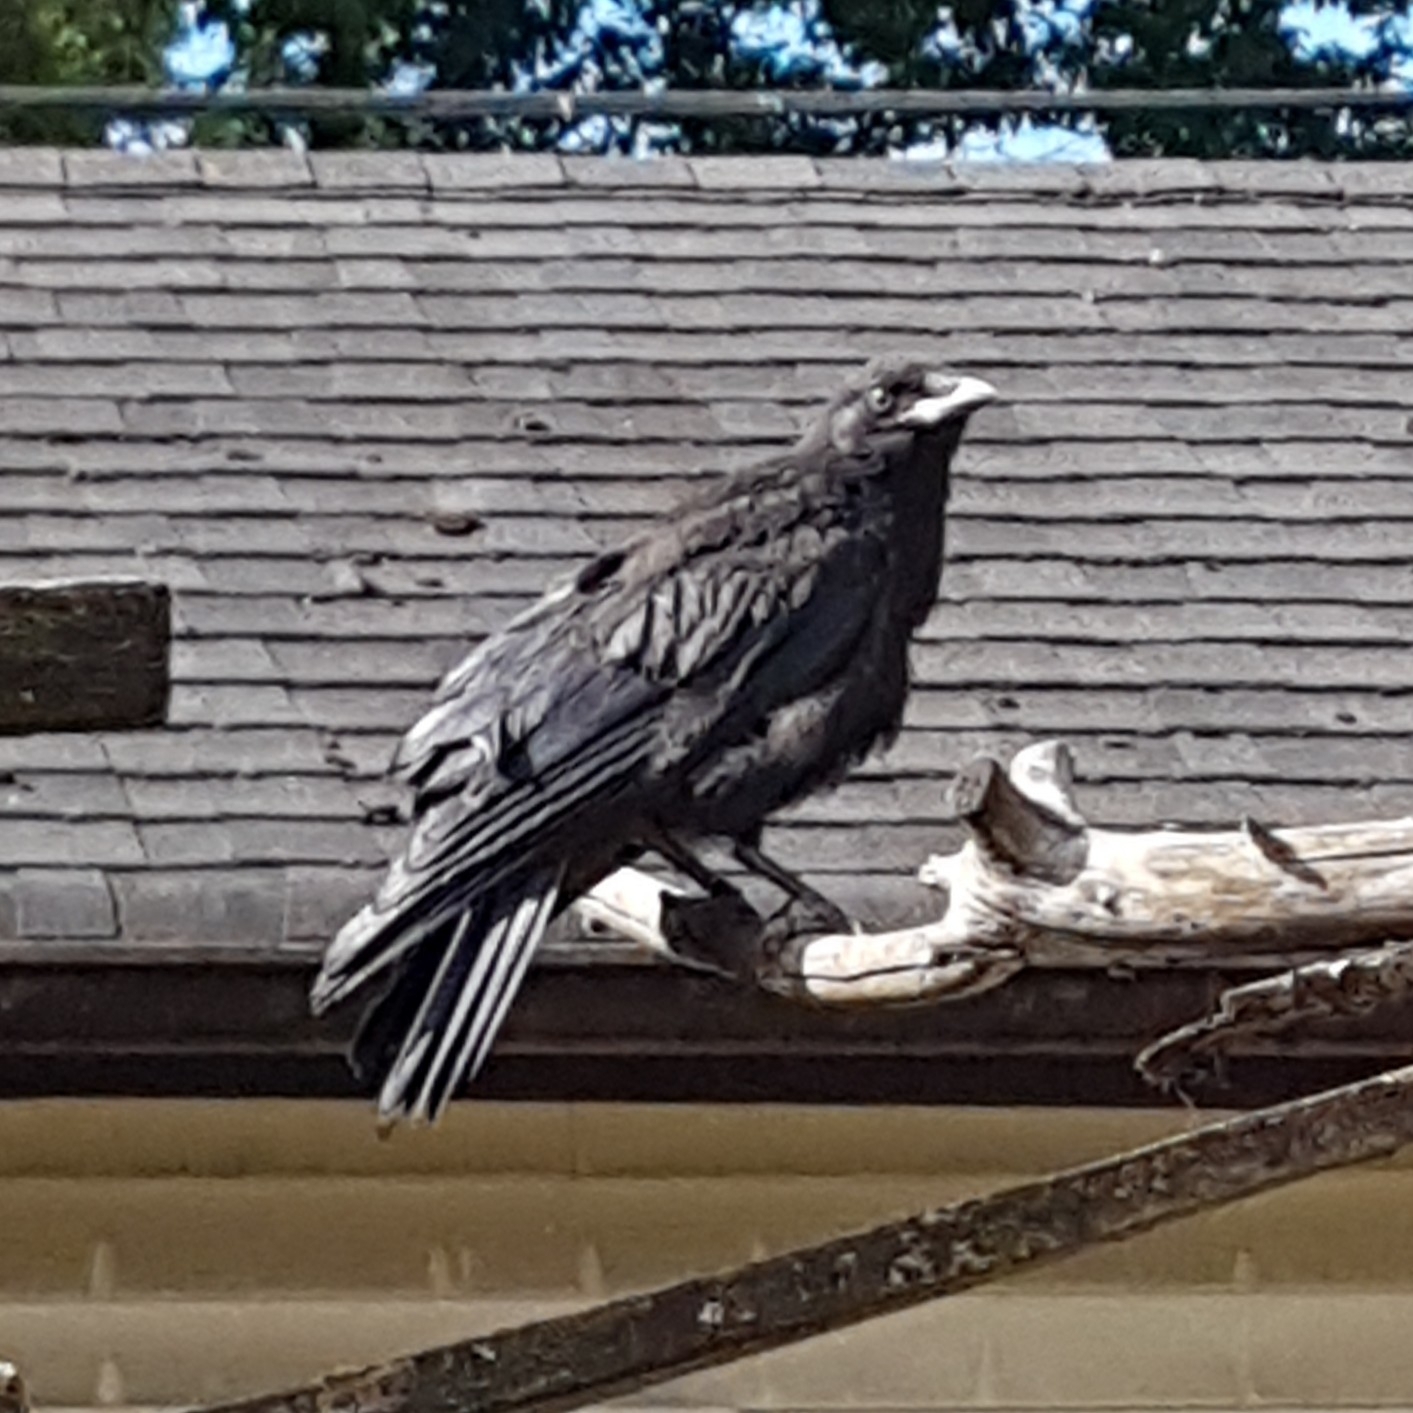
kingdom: Animalia
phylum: Chordata
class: Aves
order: Passeriformes
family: Corvidae
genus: Corvus
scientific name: Corvus brachyrhynchos
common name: American crow
